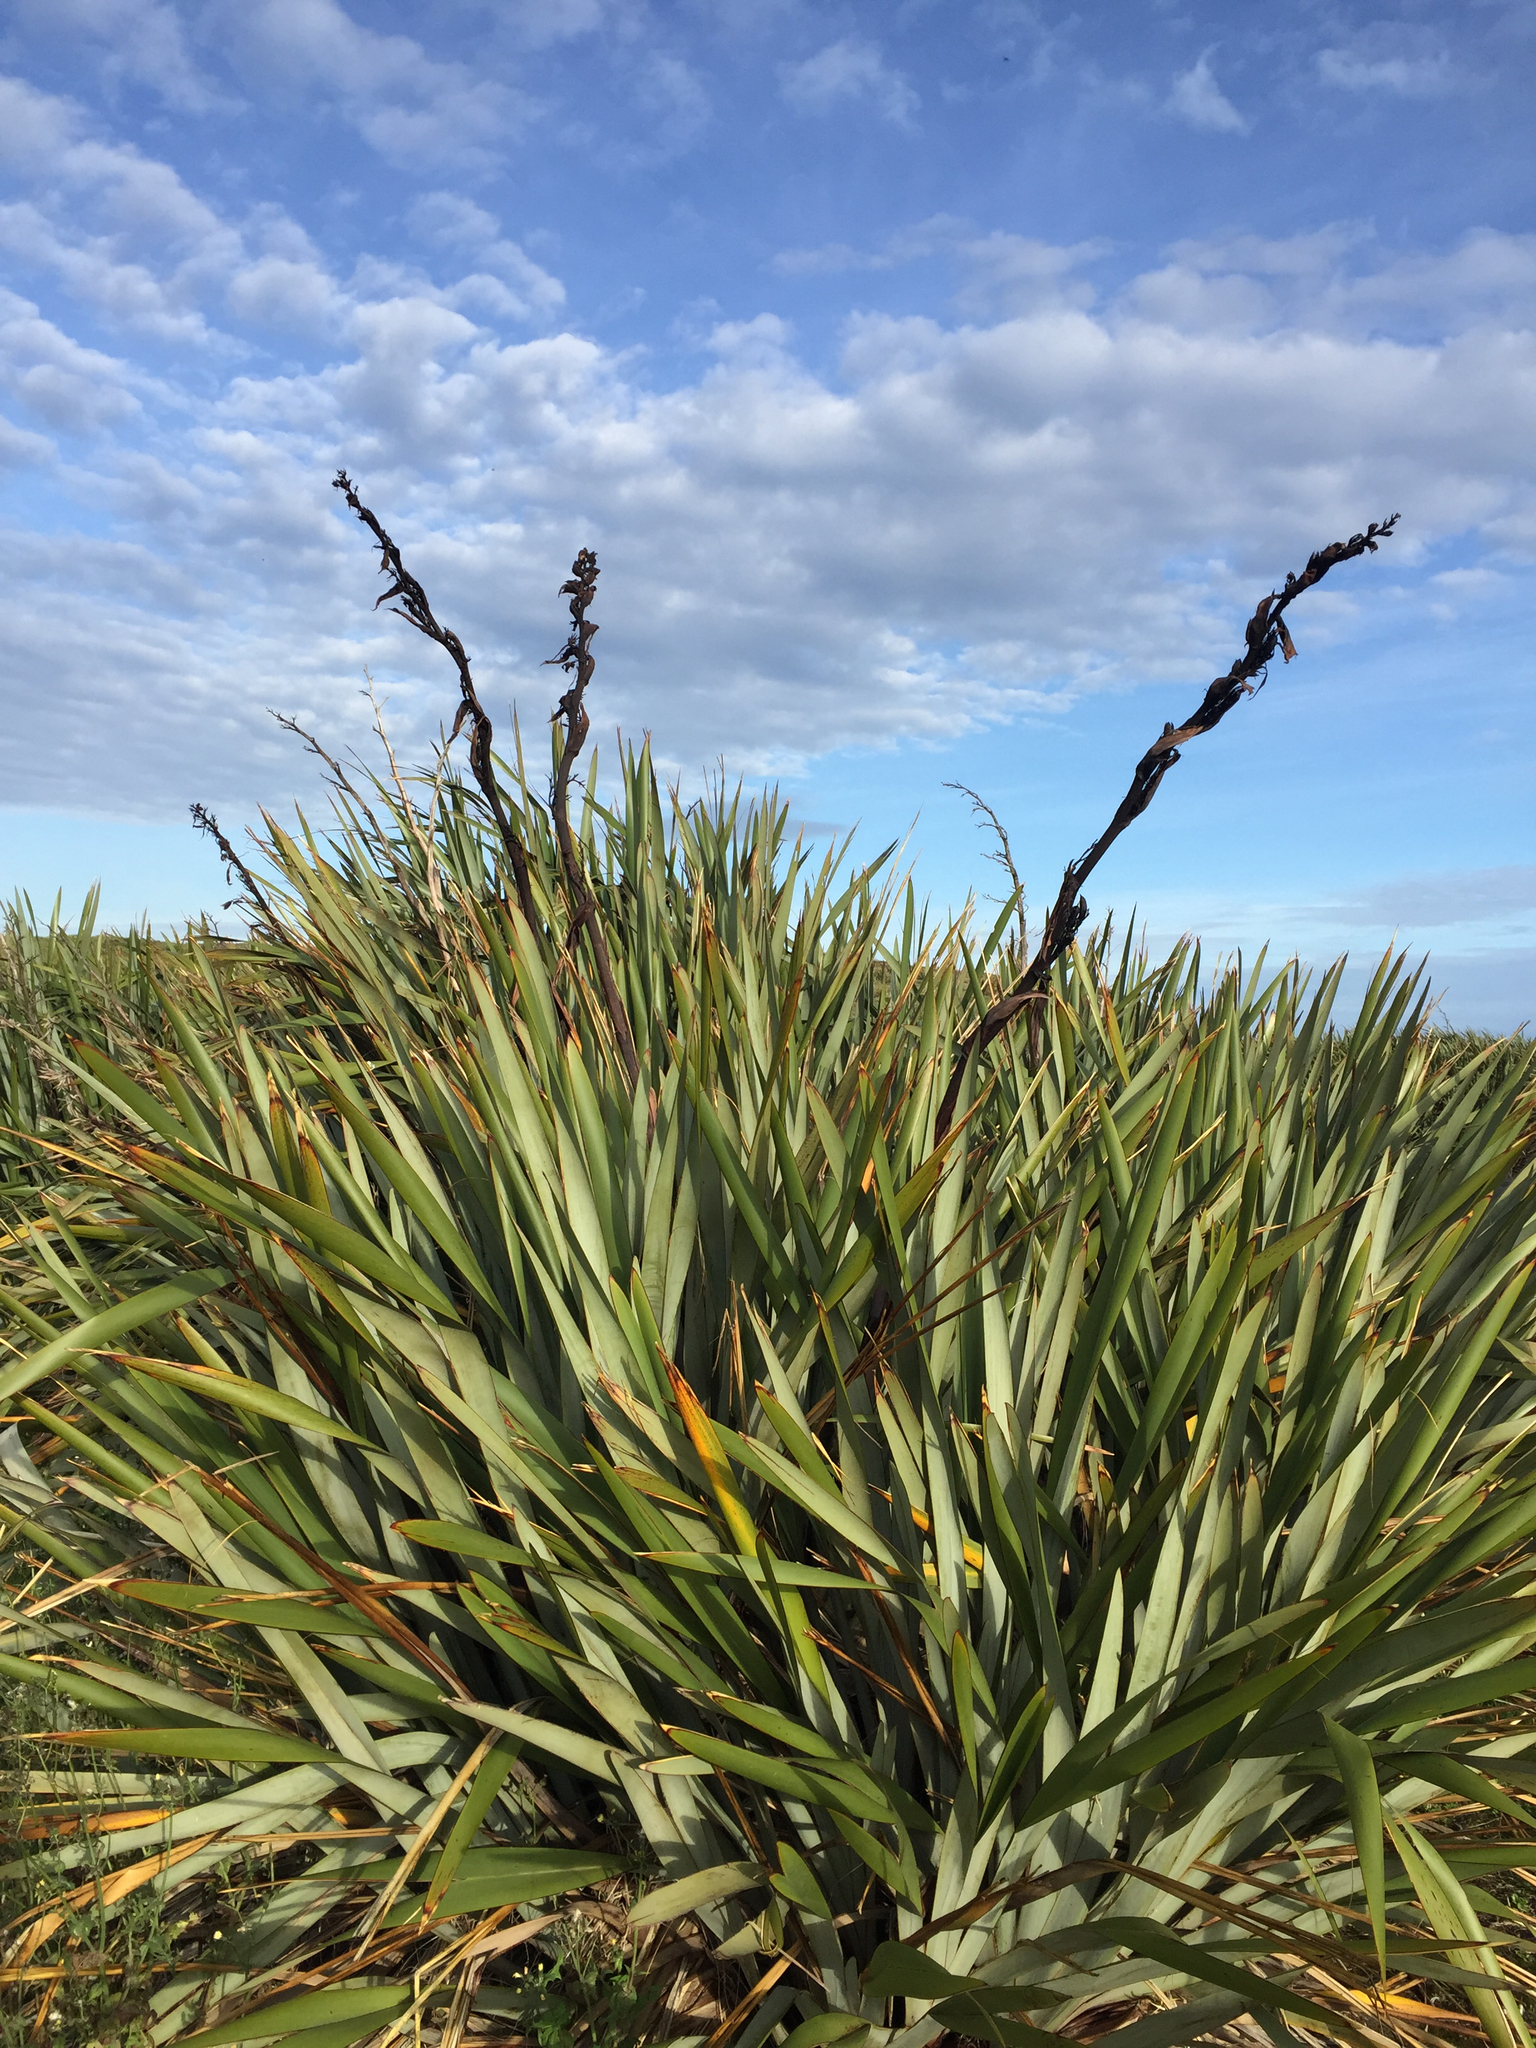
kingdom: Plantae
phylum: Tracheophyta
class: Liliopsida
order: Asparagales
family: Asphodelaceae
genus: Phormium
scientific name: Phormium tenax
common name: New zealand flax
